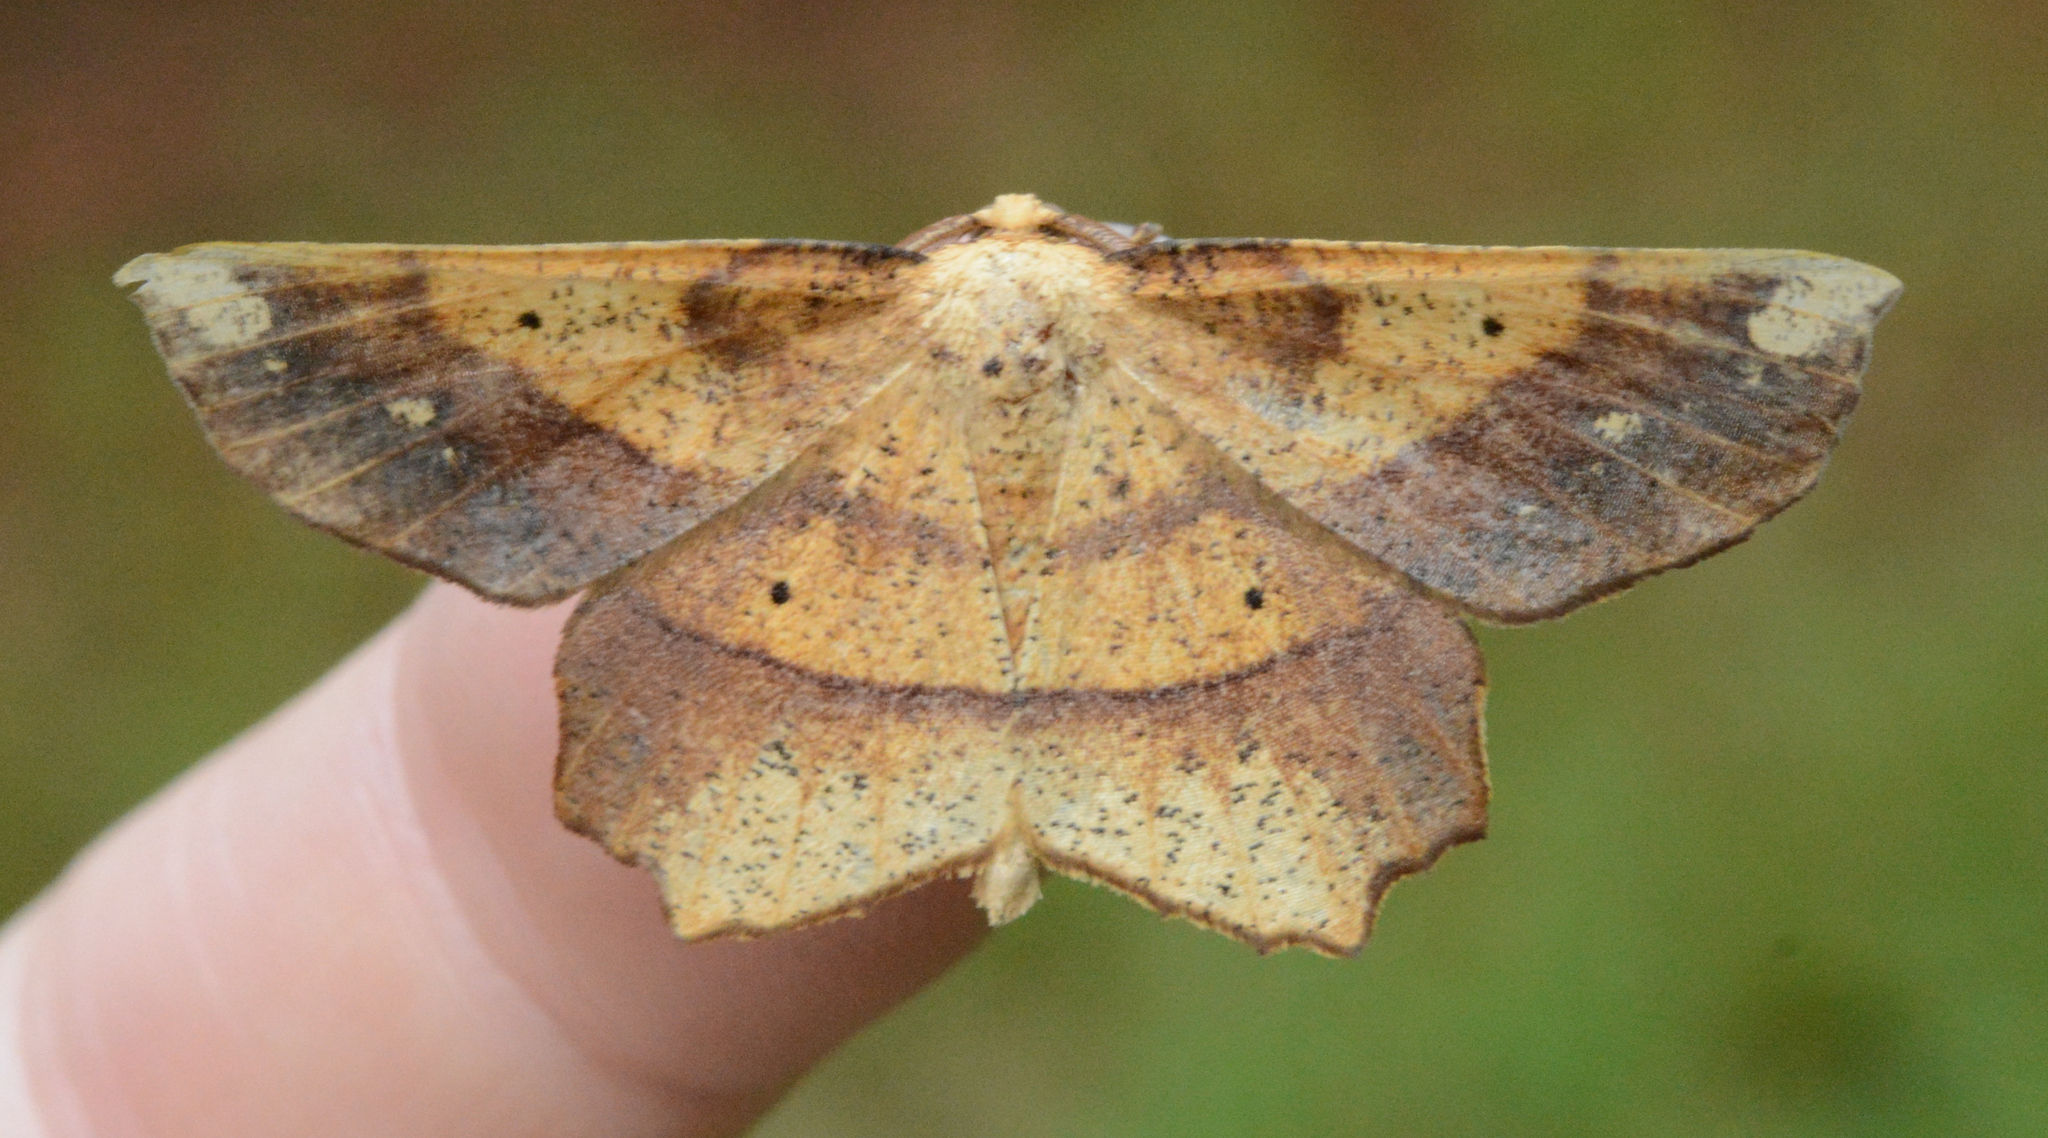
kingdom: Animalia
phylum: Arthropoda
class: Insecta
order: Lepidoptera
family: Geometridae
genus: Euchlaena
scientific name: Euchlaena amoenaria
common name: Deep yellow euchlaena
